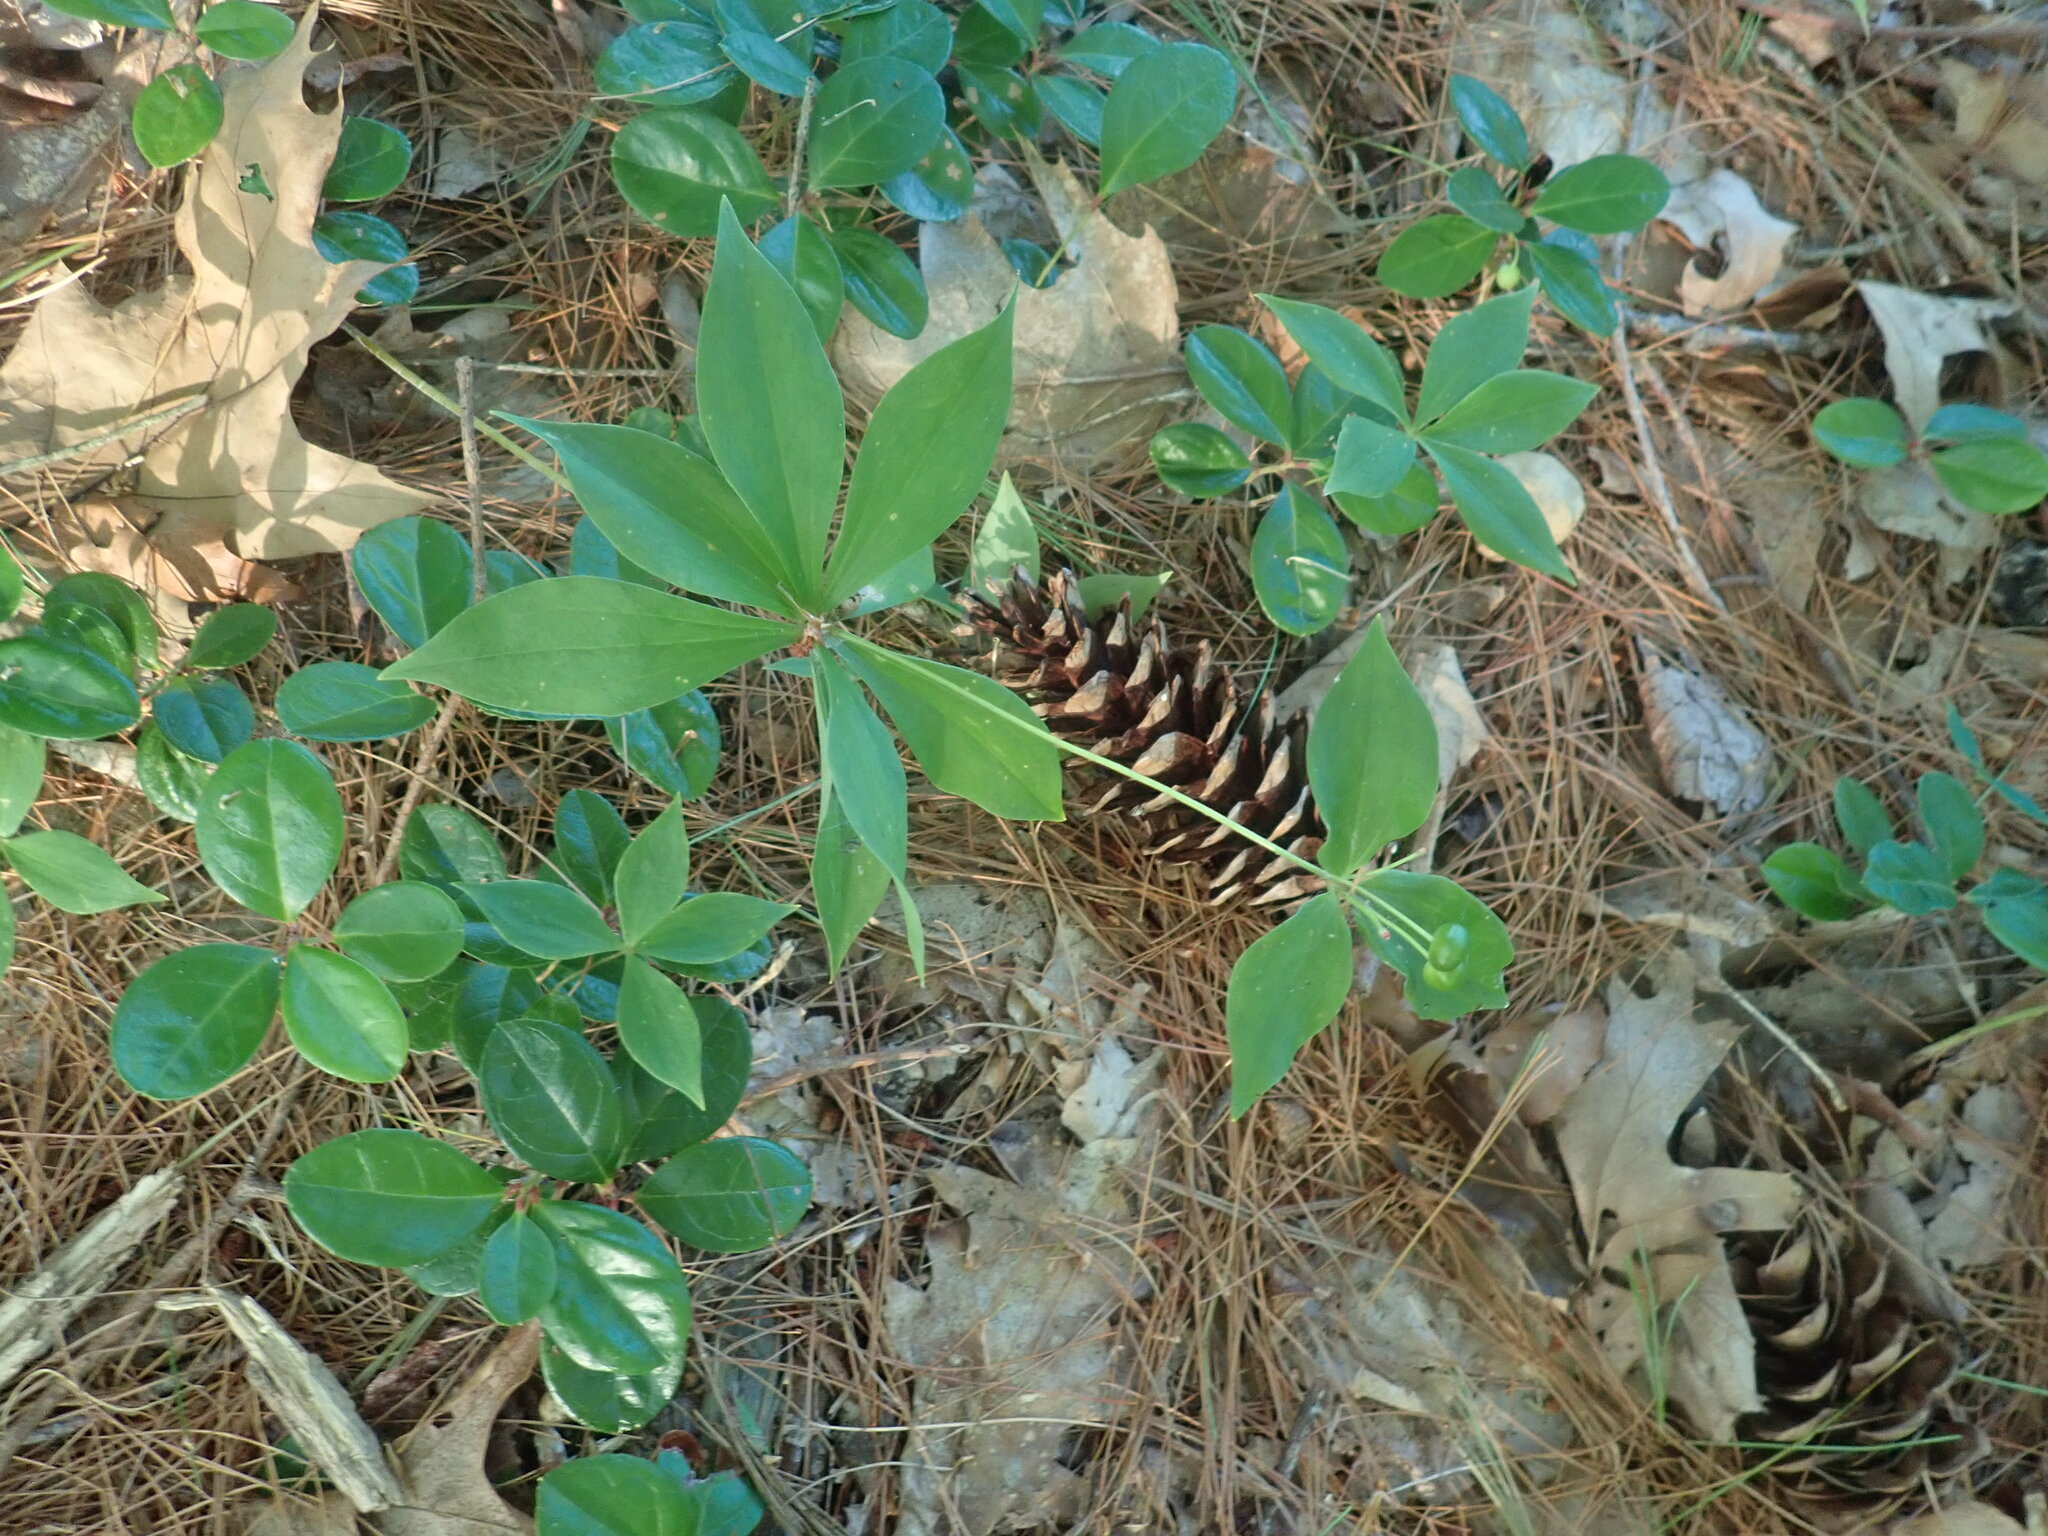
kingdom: Plantae
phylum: Tracheophyta
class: Liliopsida
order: Liliales
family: Liliaceae
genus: Medeola
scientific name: Medeola virginiana
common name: Indian cucumber-root
